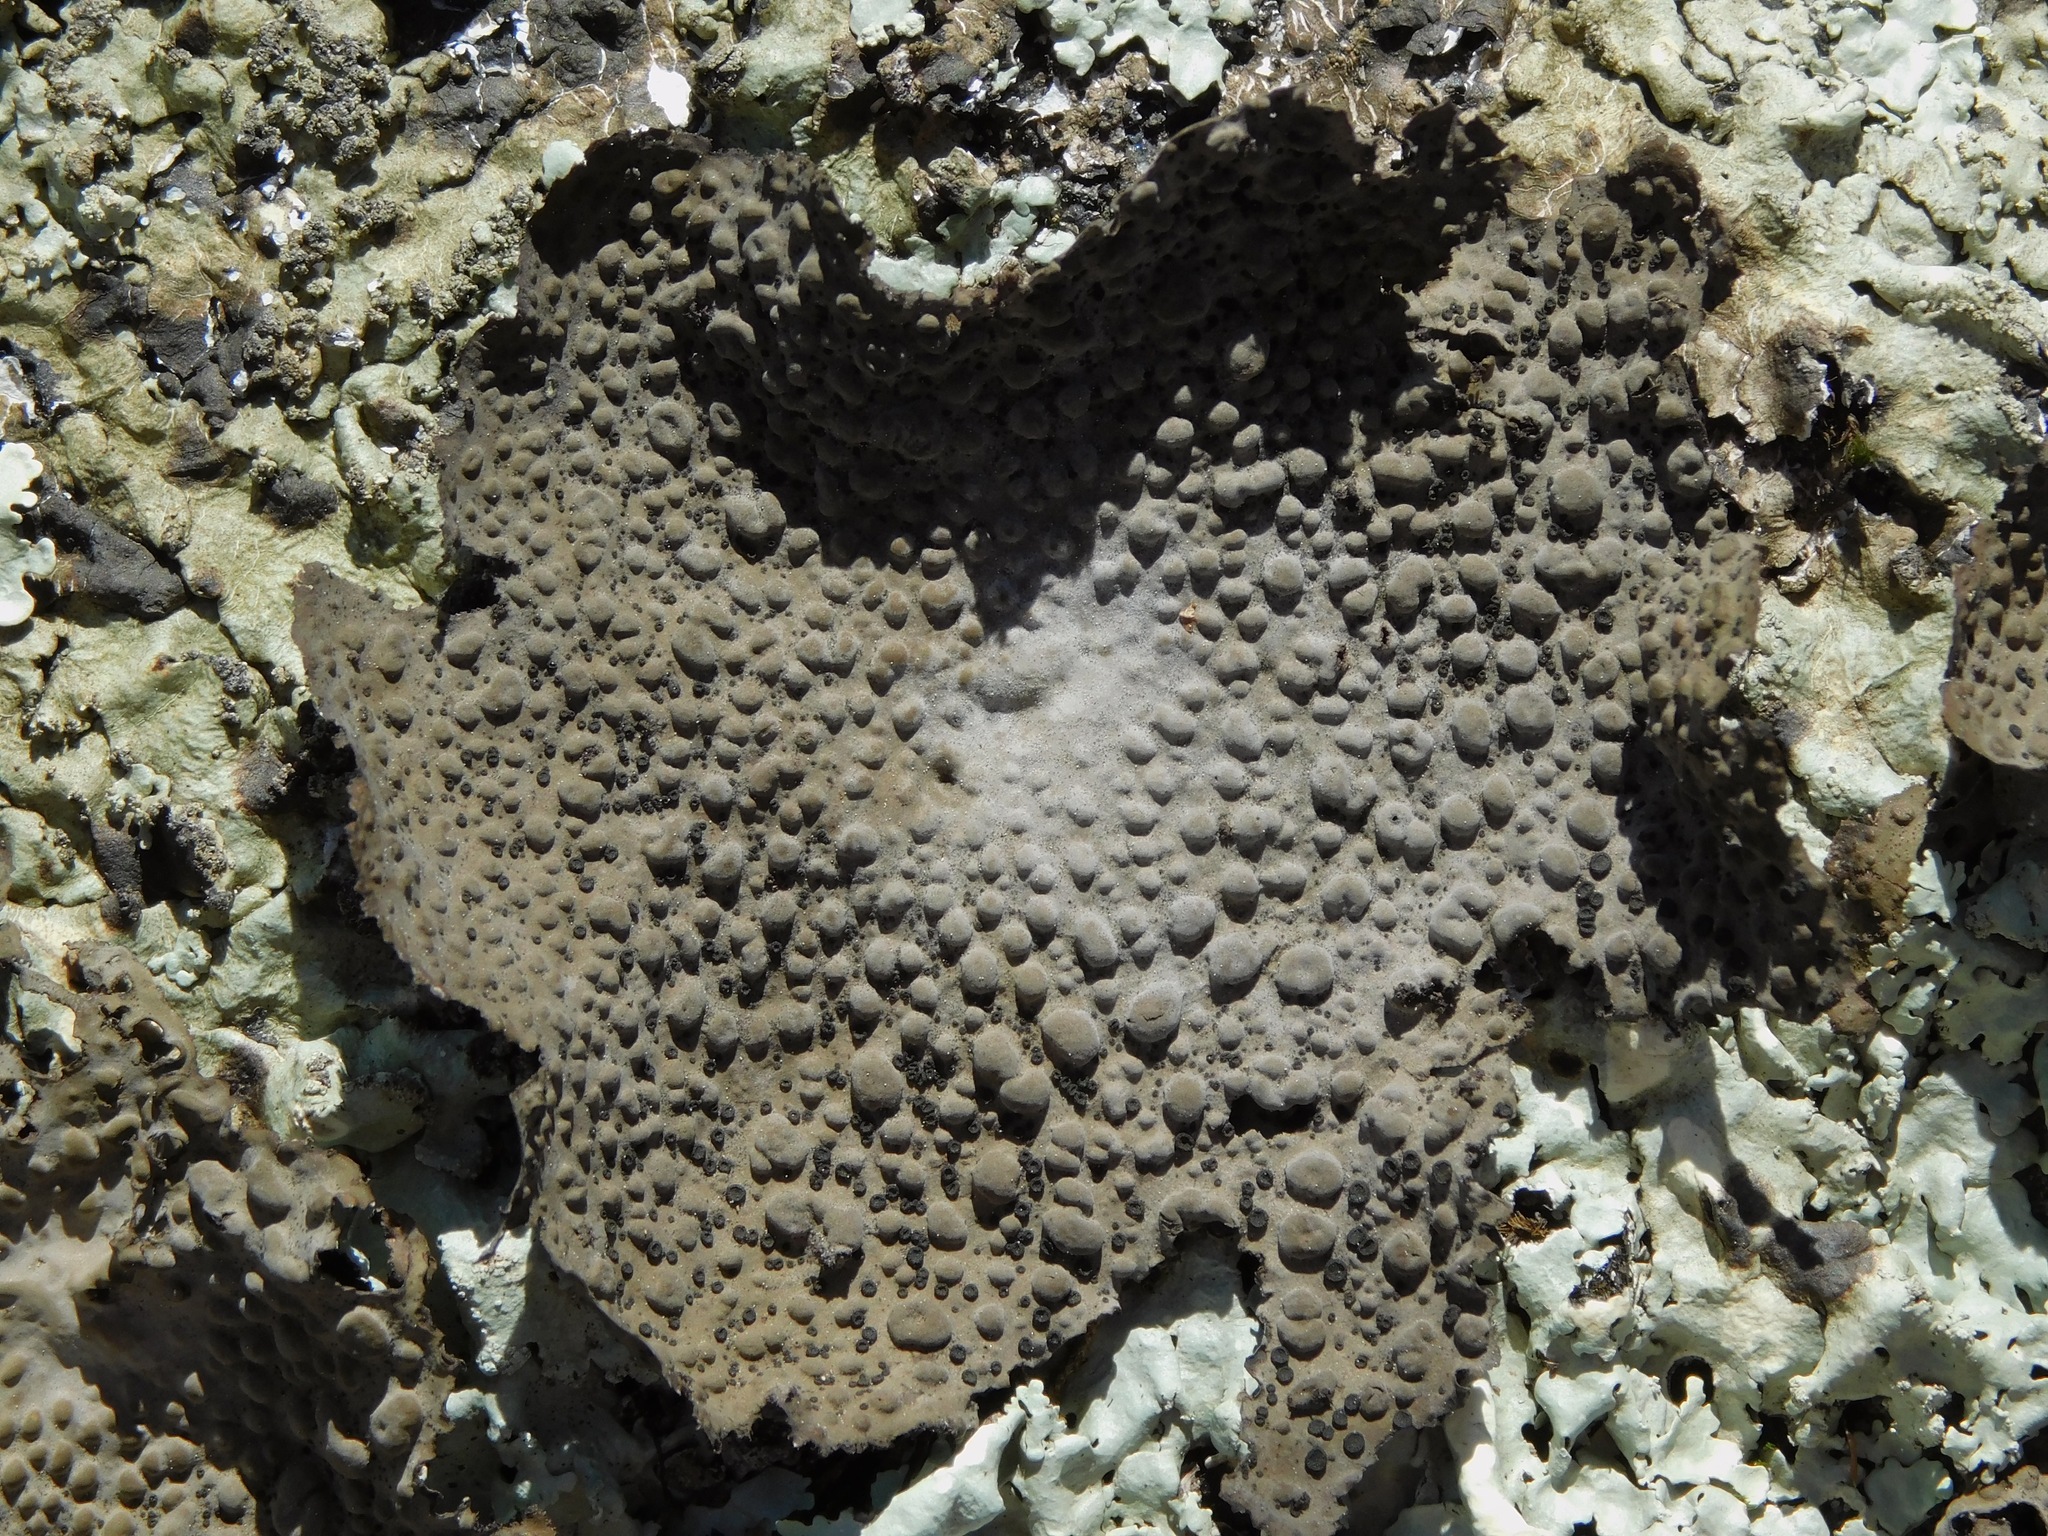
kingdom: Fungi
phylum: Ascomycota
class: Lecanoromycetes
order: Umbilicariales
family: Umbilicariaceae
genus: Lasallia
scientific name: Lasallia papulosa
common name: Common toadskin lichen
